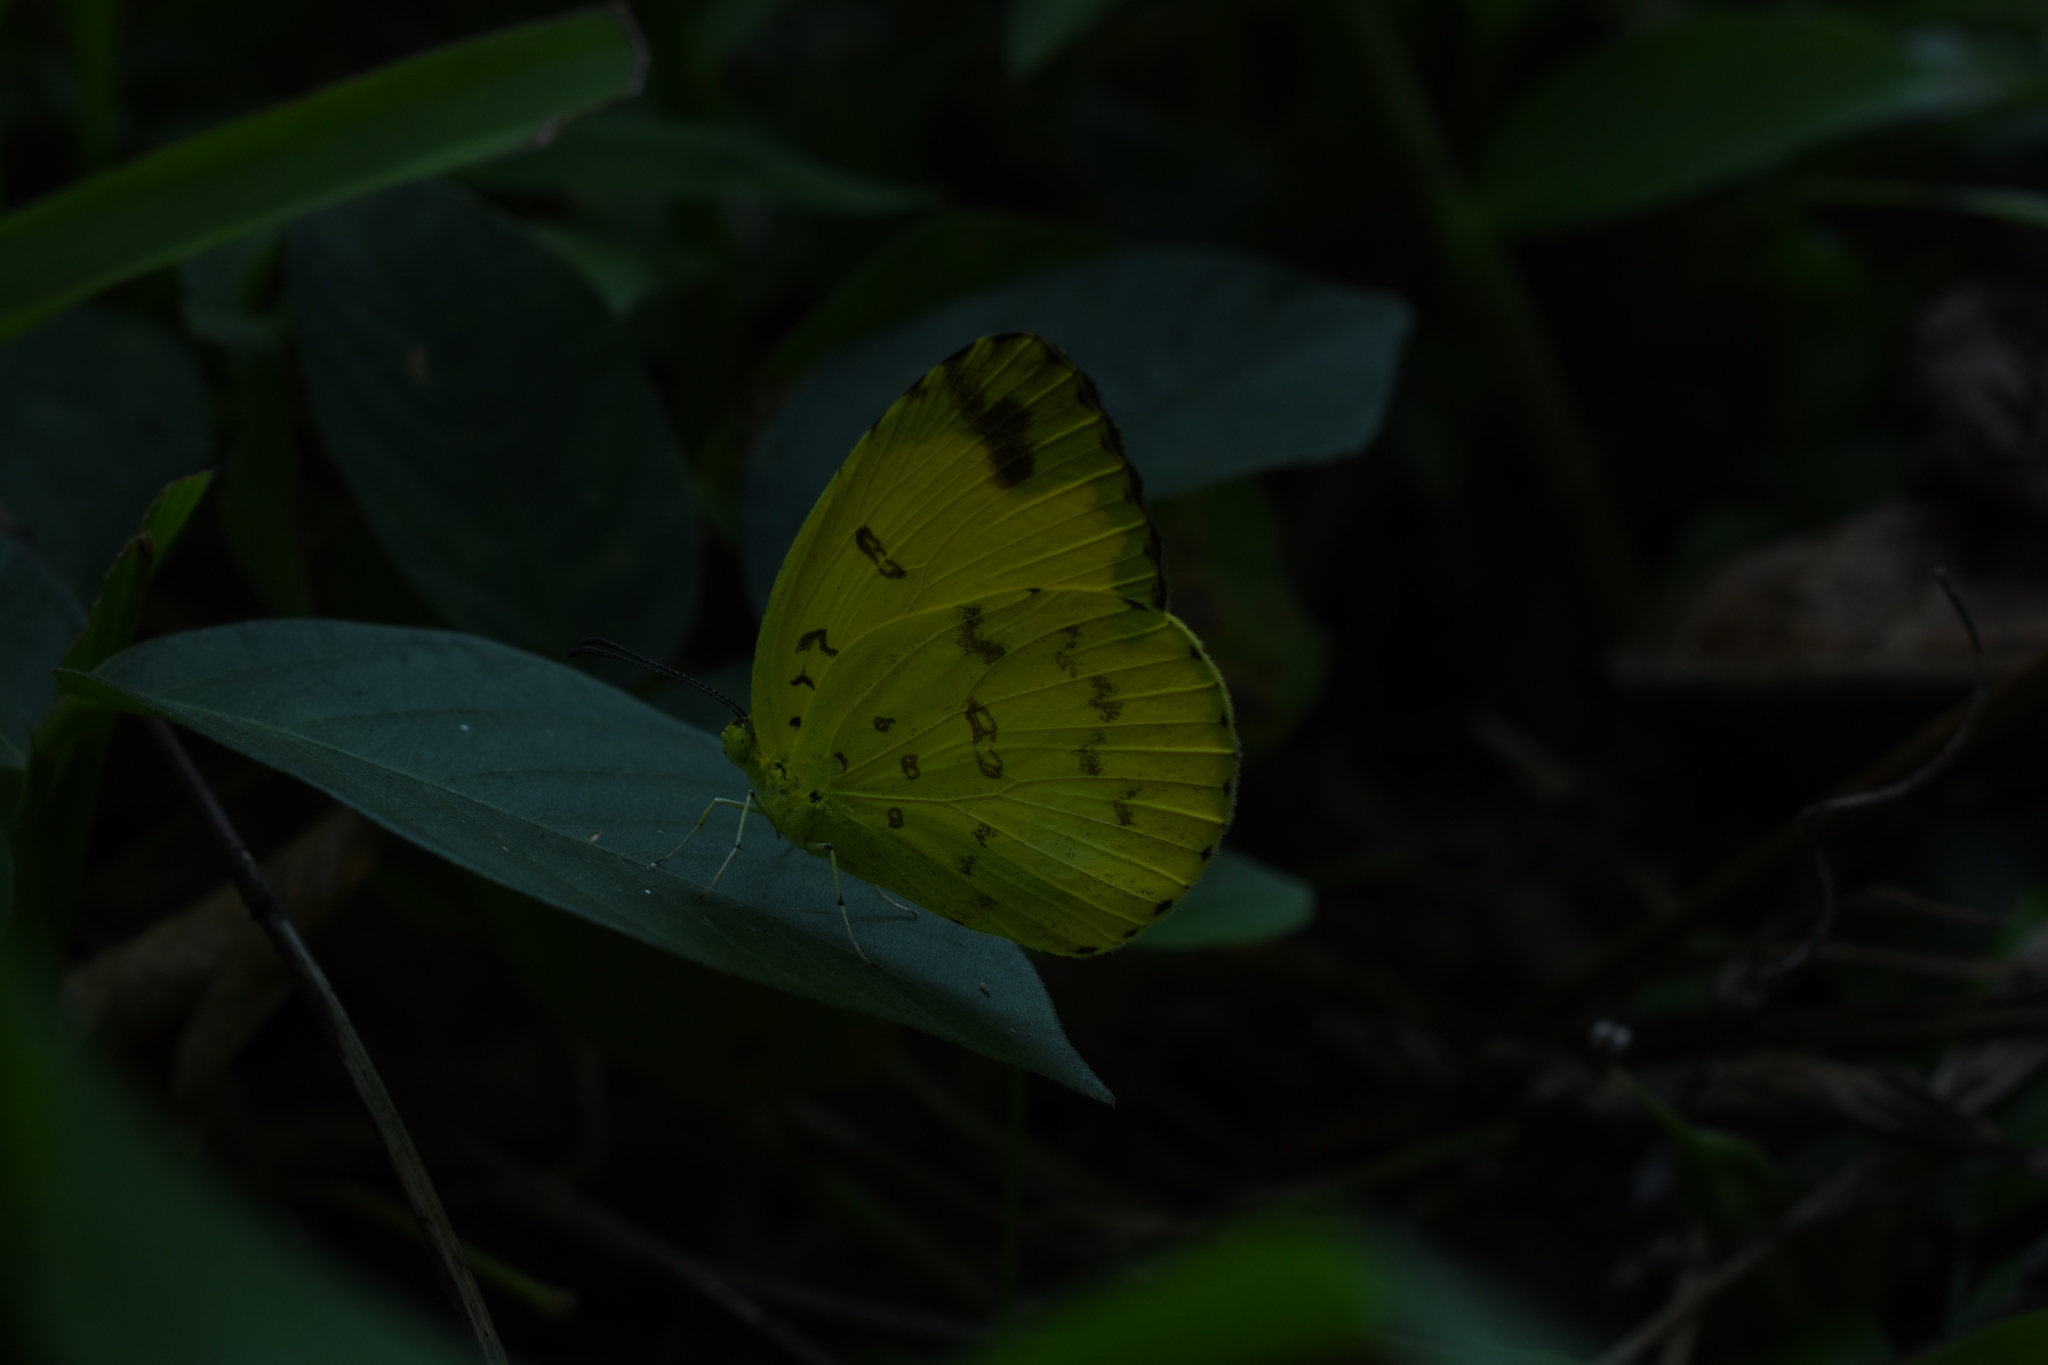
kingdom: Animalia
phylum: Arthropoda
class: Insecta
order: Lepidoptera
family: Pieridae
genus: Eurema
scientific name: Eurema blanda
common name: Three-spot grass yellow
